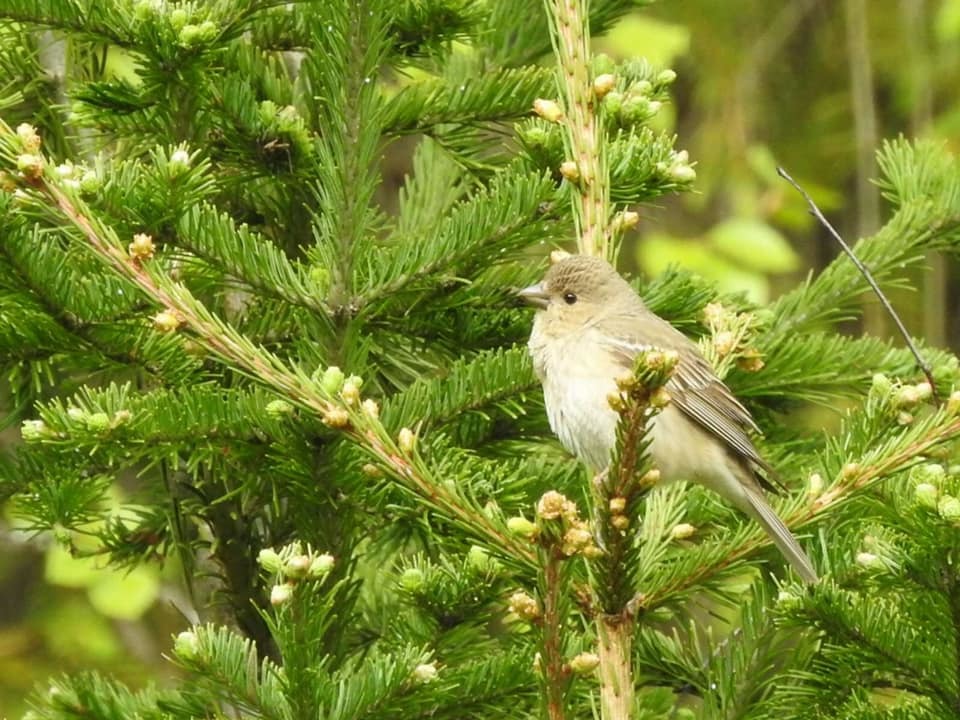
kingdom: Animalia
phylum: Chordata
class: Aves
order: Passeriformes
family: Muscicapidae
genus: Muscicapa
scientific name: Muscicapa striata
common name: Spotted flycatcher
